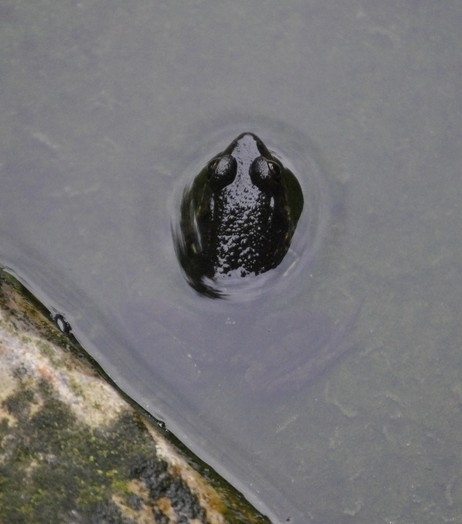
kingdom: Animalia
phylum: Chordata
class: Amphibia
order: Anura
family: Ranidae
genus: Lithobates
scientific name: Lithobates clamitans
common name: Green frog
